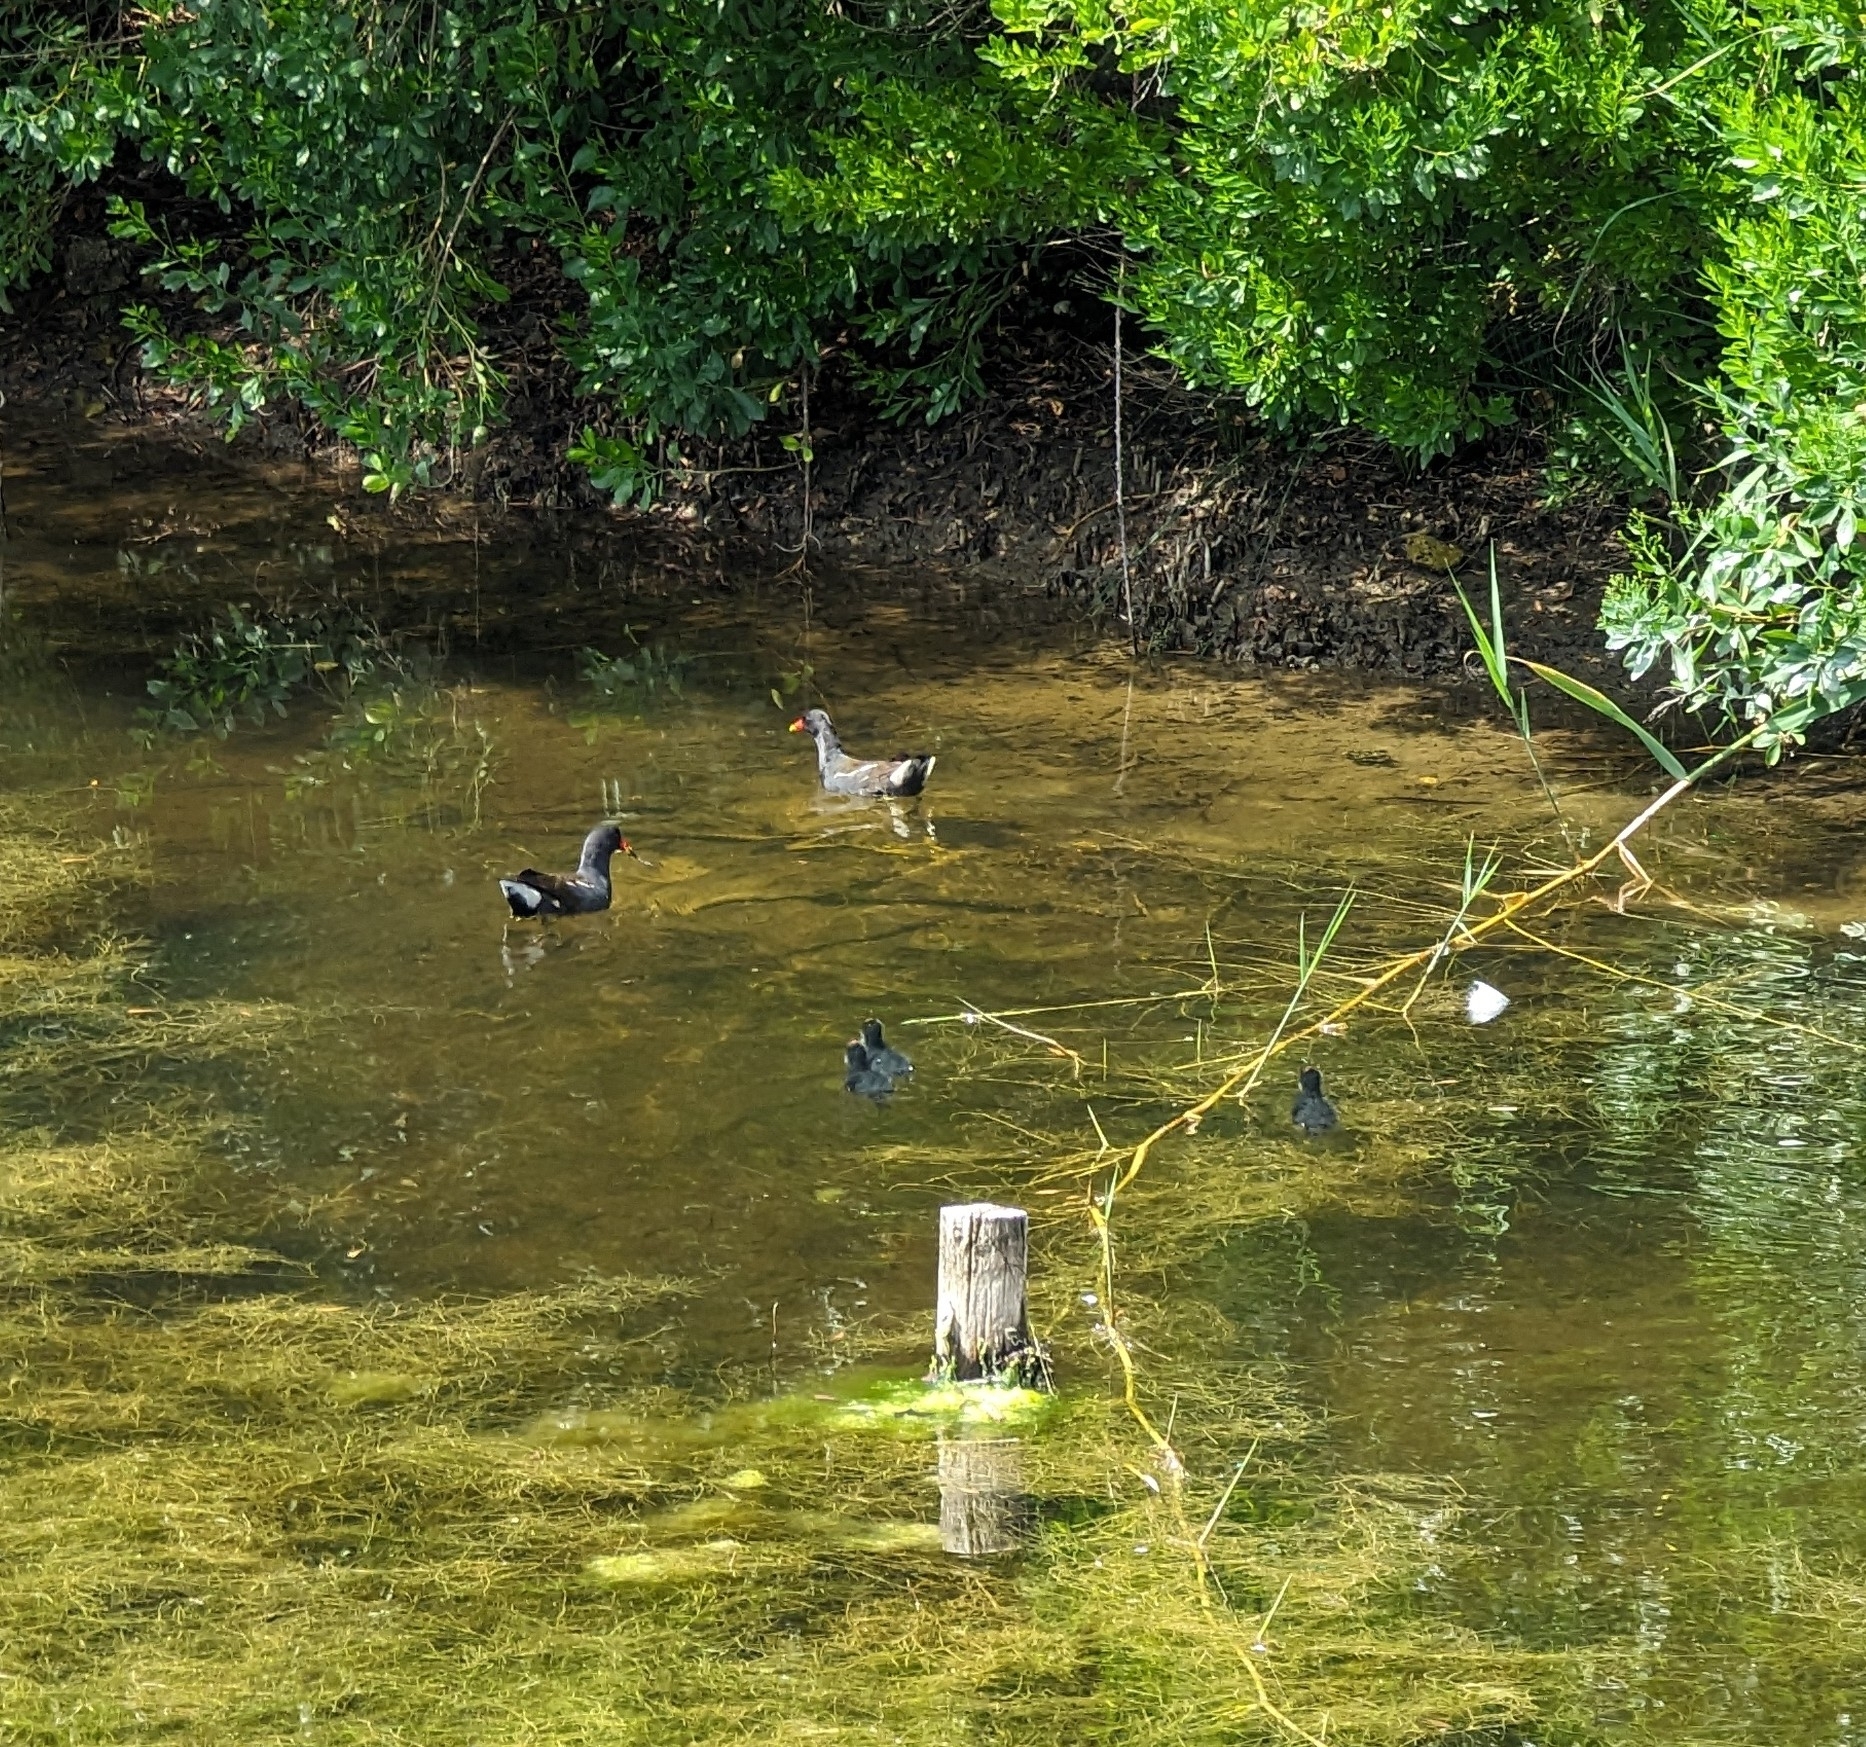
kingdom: Animalia
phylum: Chordata
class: Aves
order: Gruiformes
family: Rallidae
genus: Gallinula
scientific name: Gallinula chloropus
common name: Common moorhen
